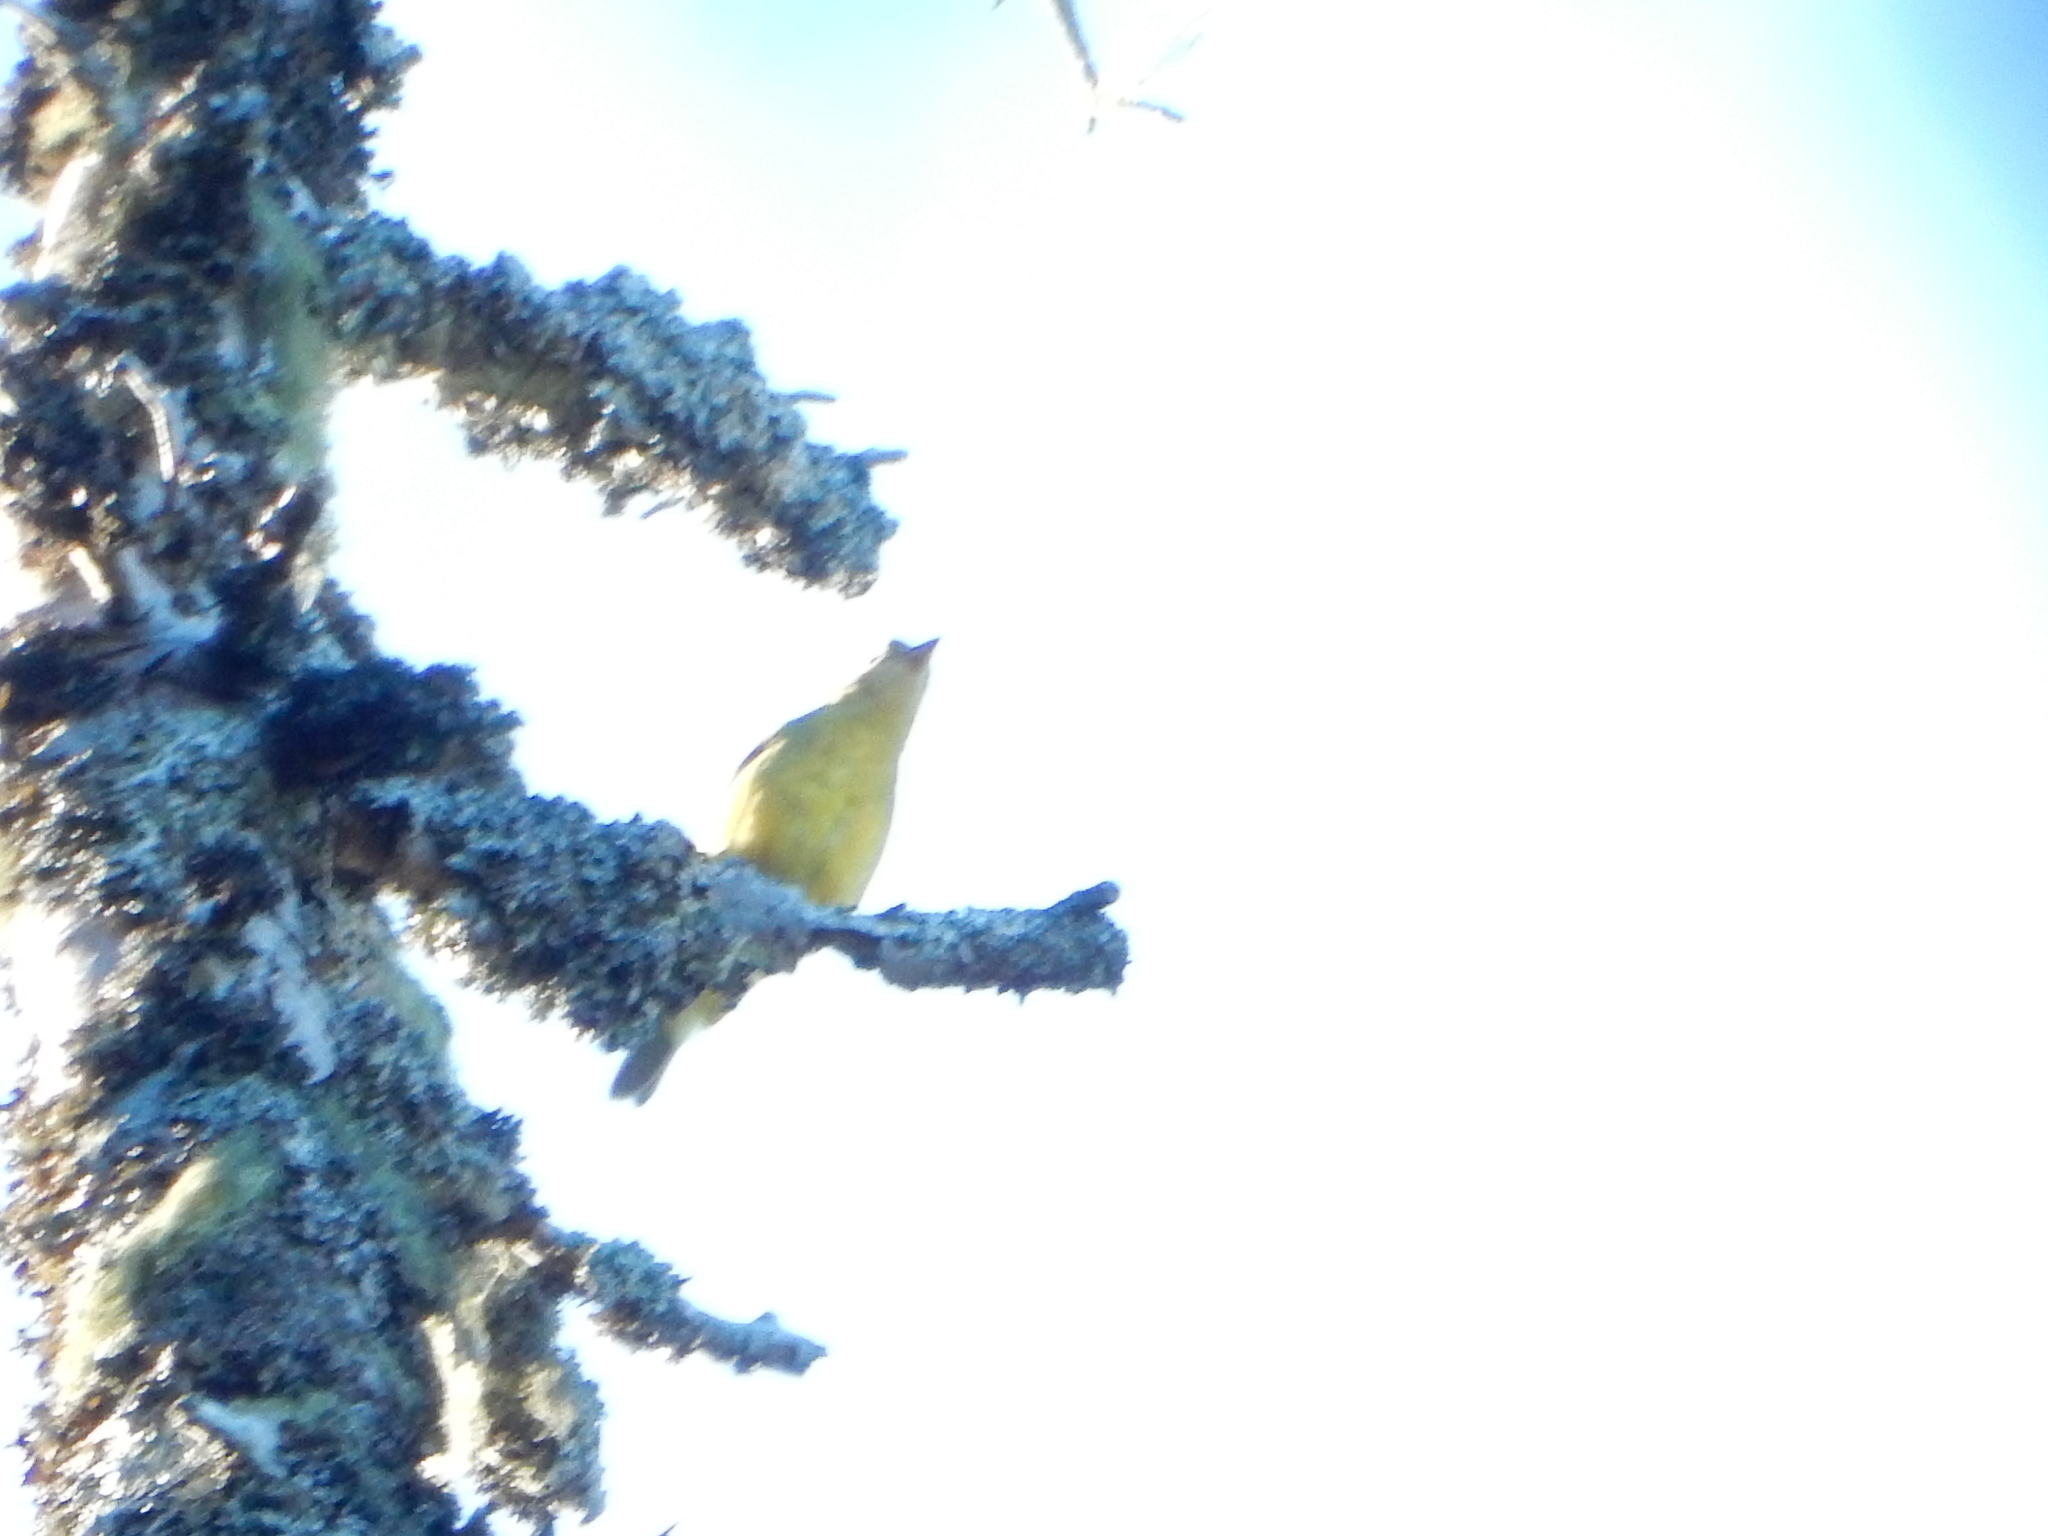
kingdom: Animalia
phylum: Chordata
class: Aves
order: Passeriformes
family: Cardinalidae
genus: Piranga
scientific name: Piranga ludoviciana
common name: Western tanager
